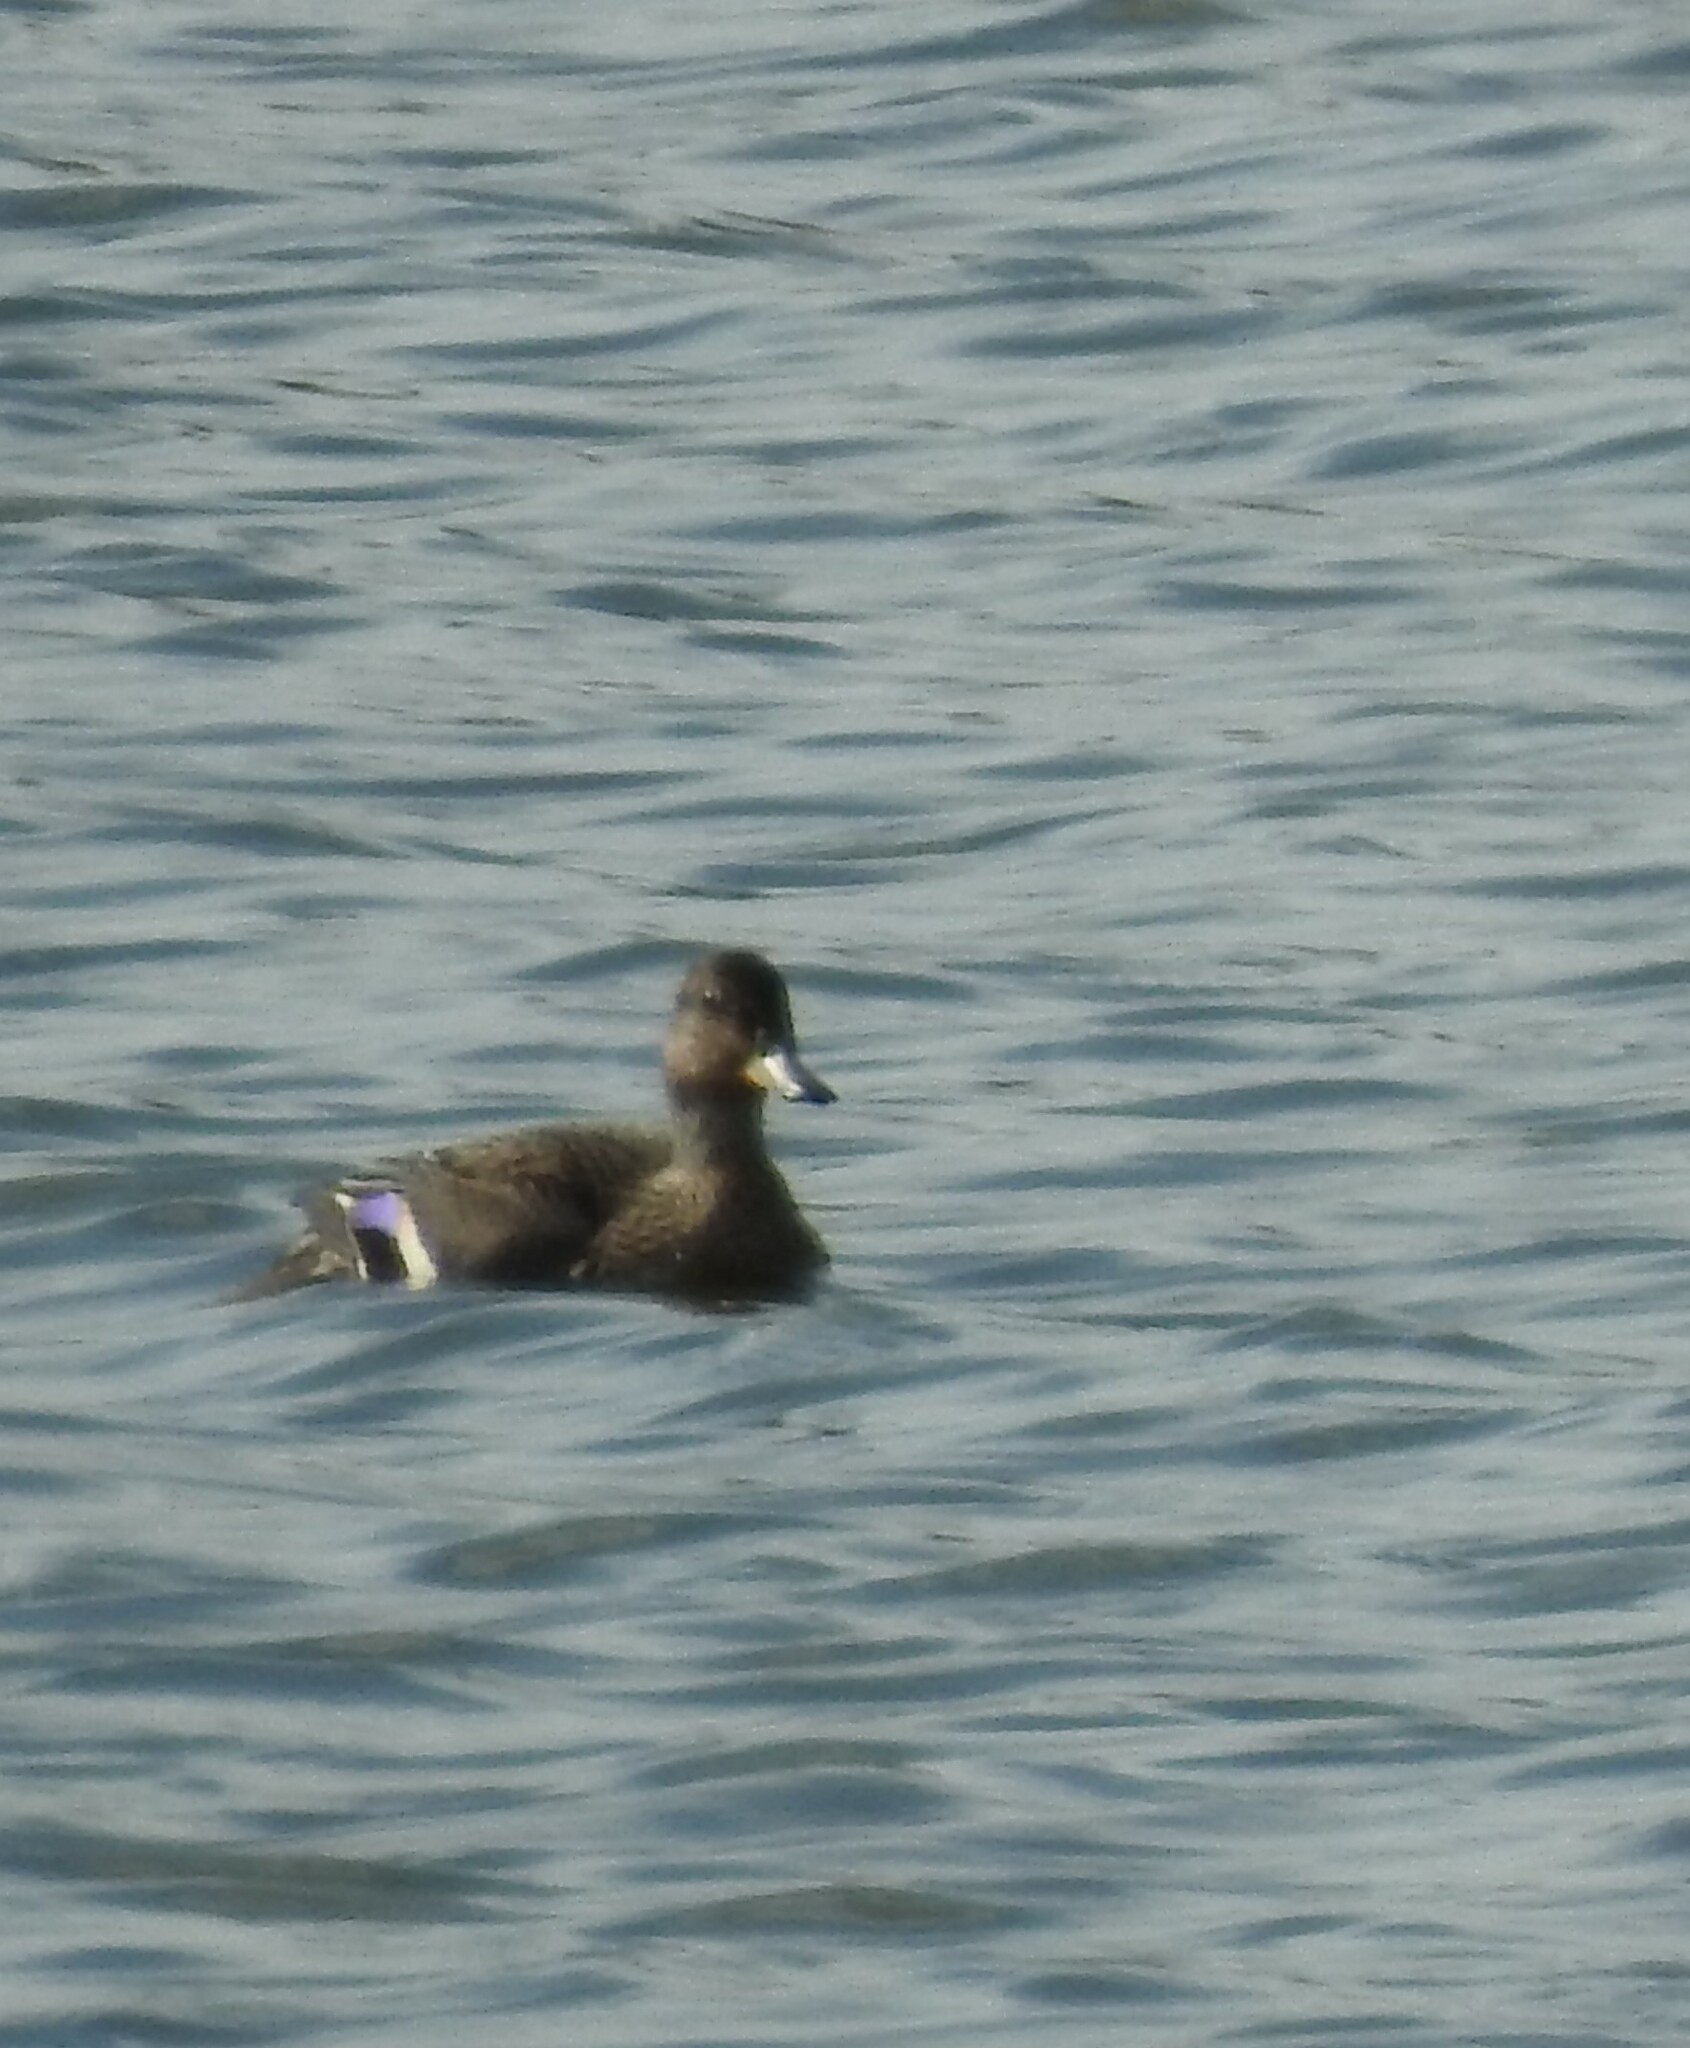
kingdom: Animalia
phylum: Chordata
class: Aves
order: Anseriformes
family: Anatidae
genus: Anas
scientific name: Anas crecca
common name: Eurasian teal
